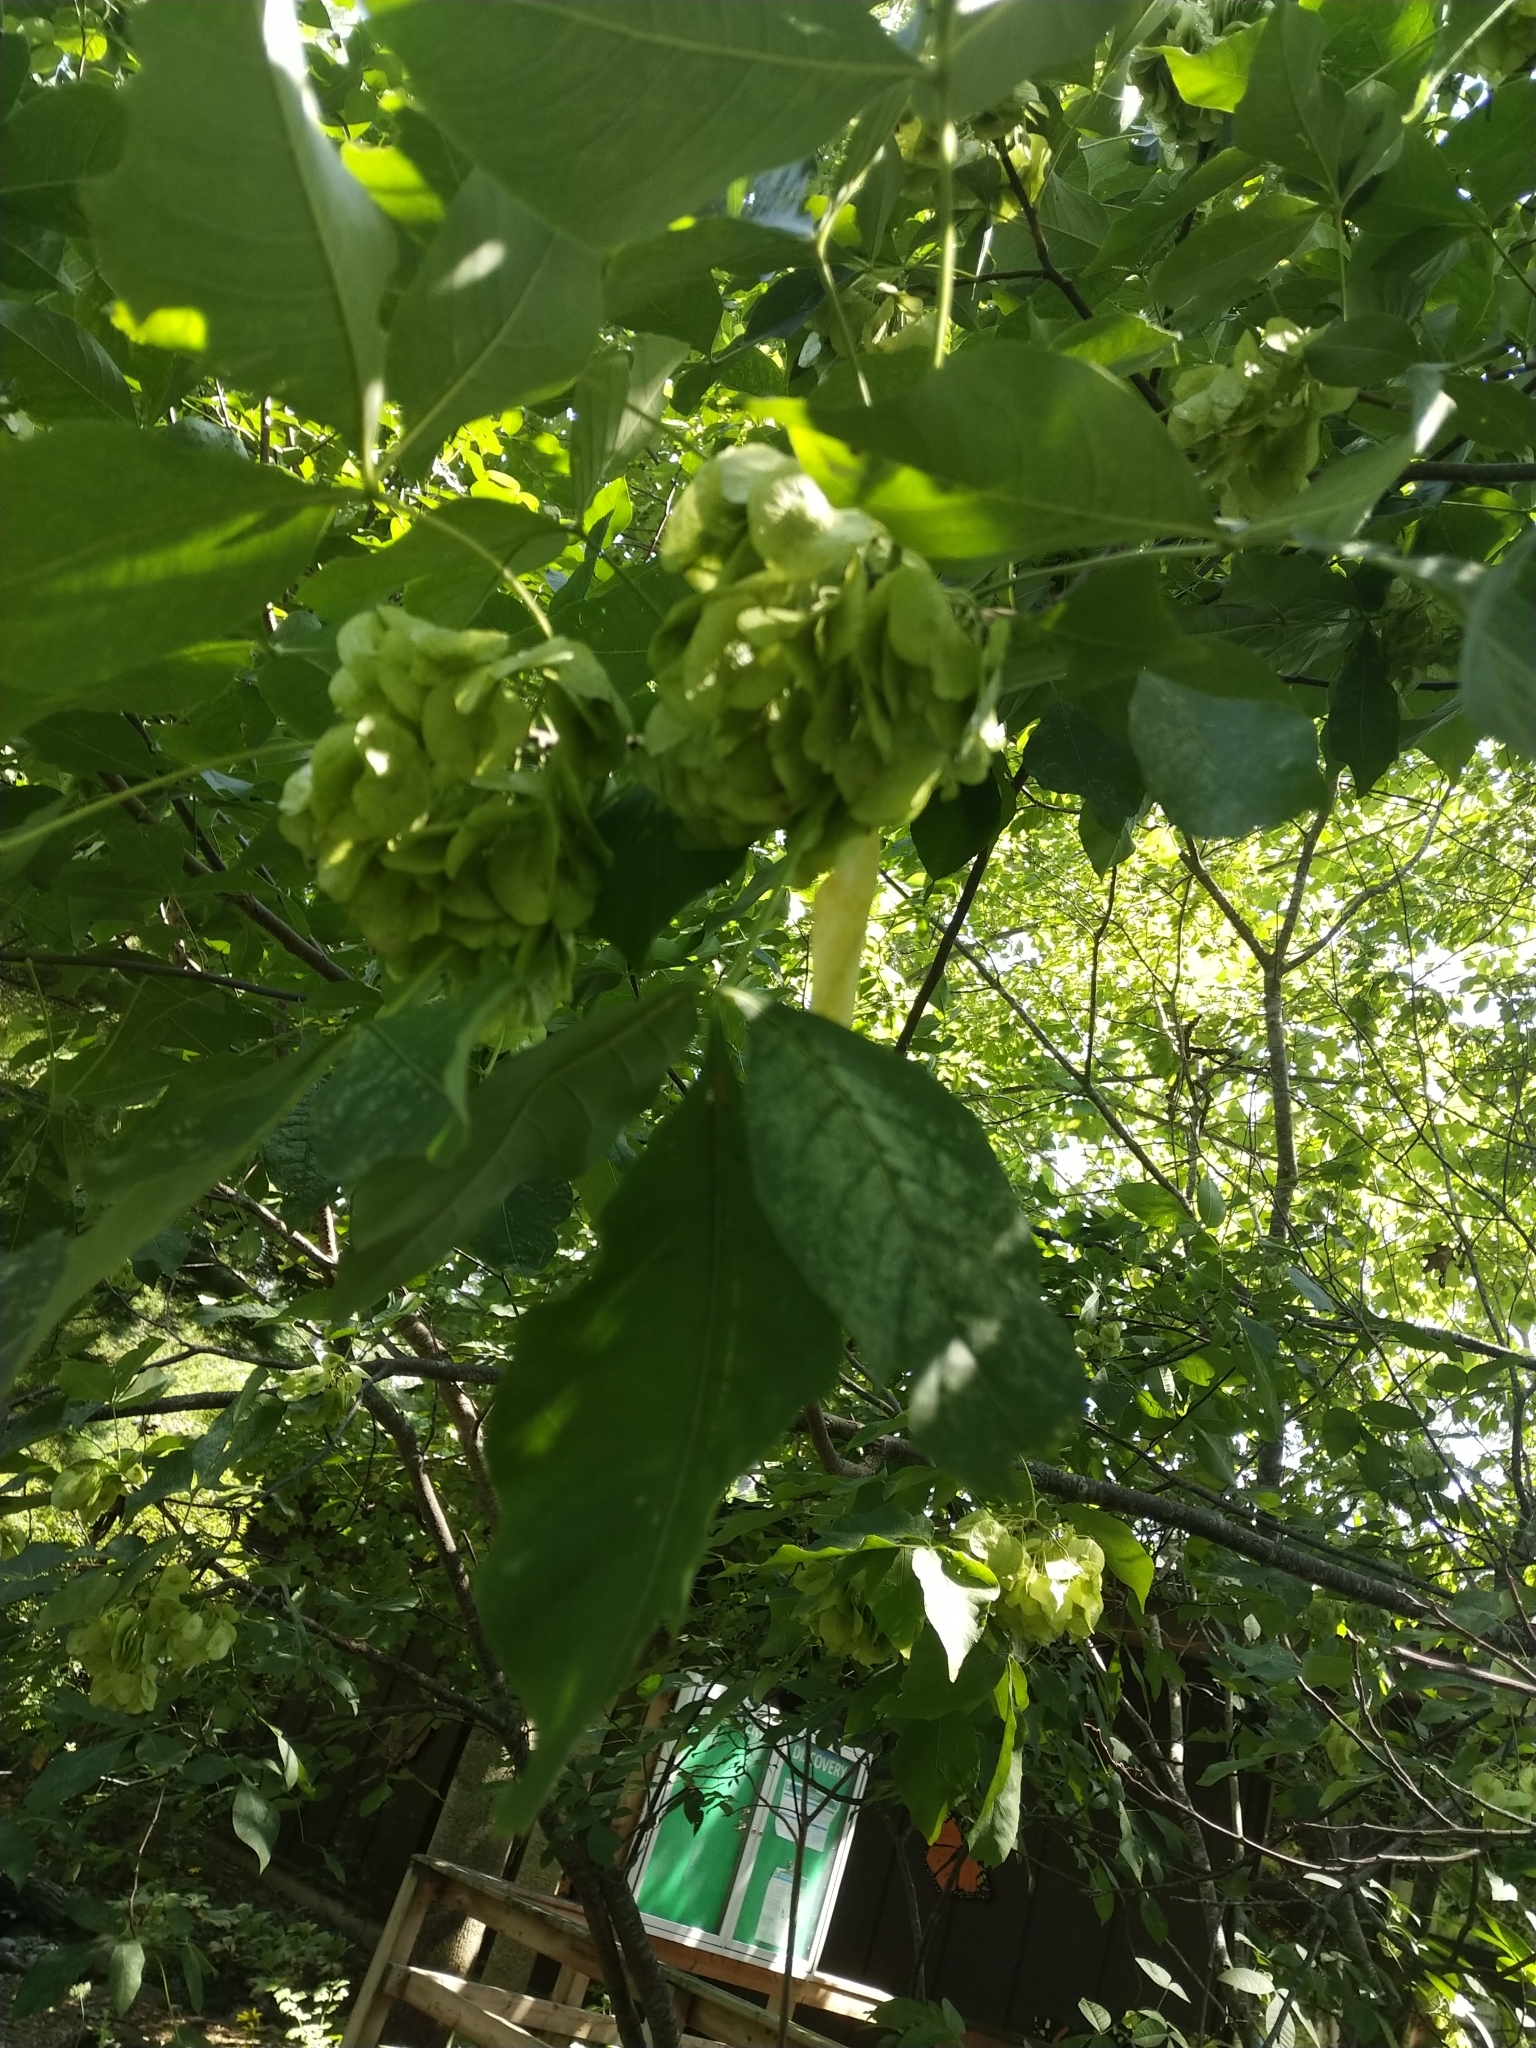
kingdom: Plantae
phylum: Tracheophyta
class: Magnoliopsida
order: Sapindales
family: Rutaceae
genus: Ptelea
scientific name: Ptelea trifoliata
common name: Common hop-tree
